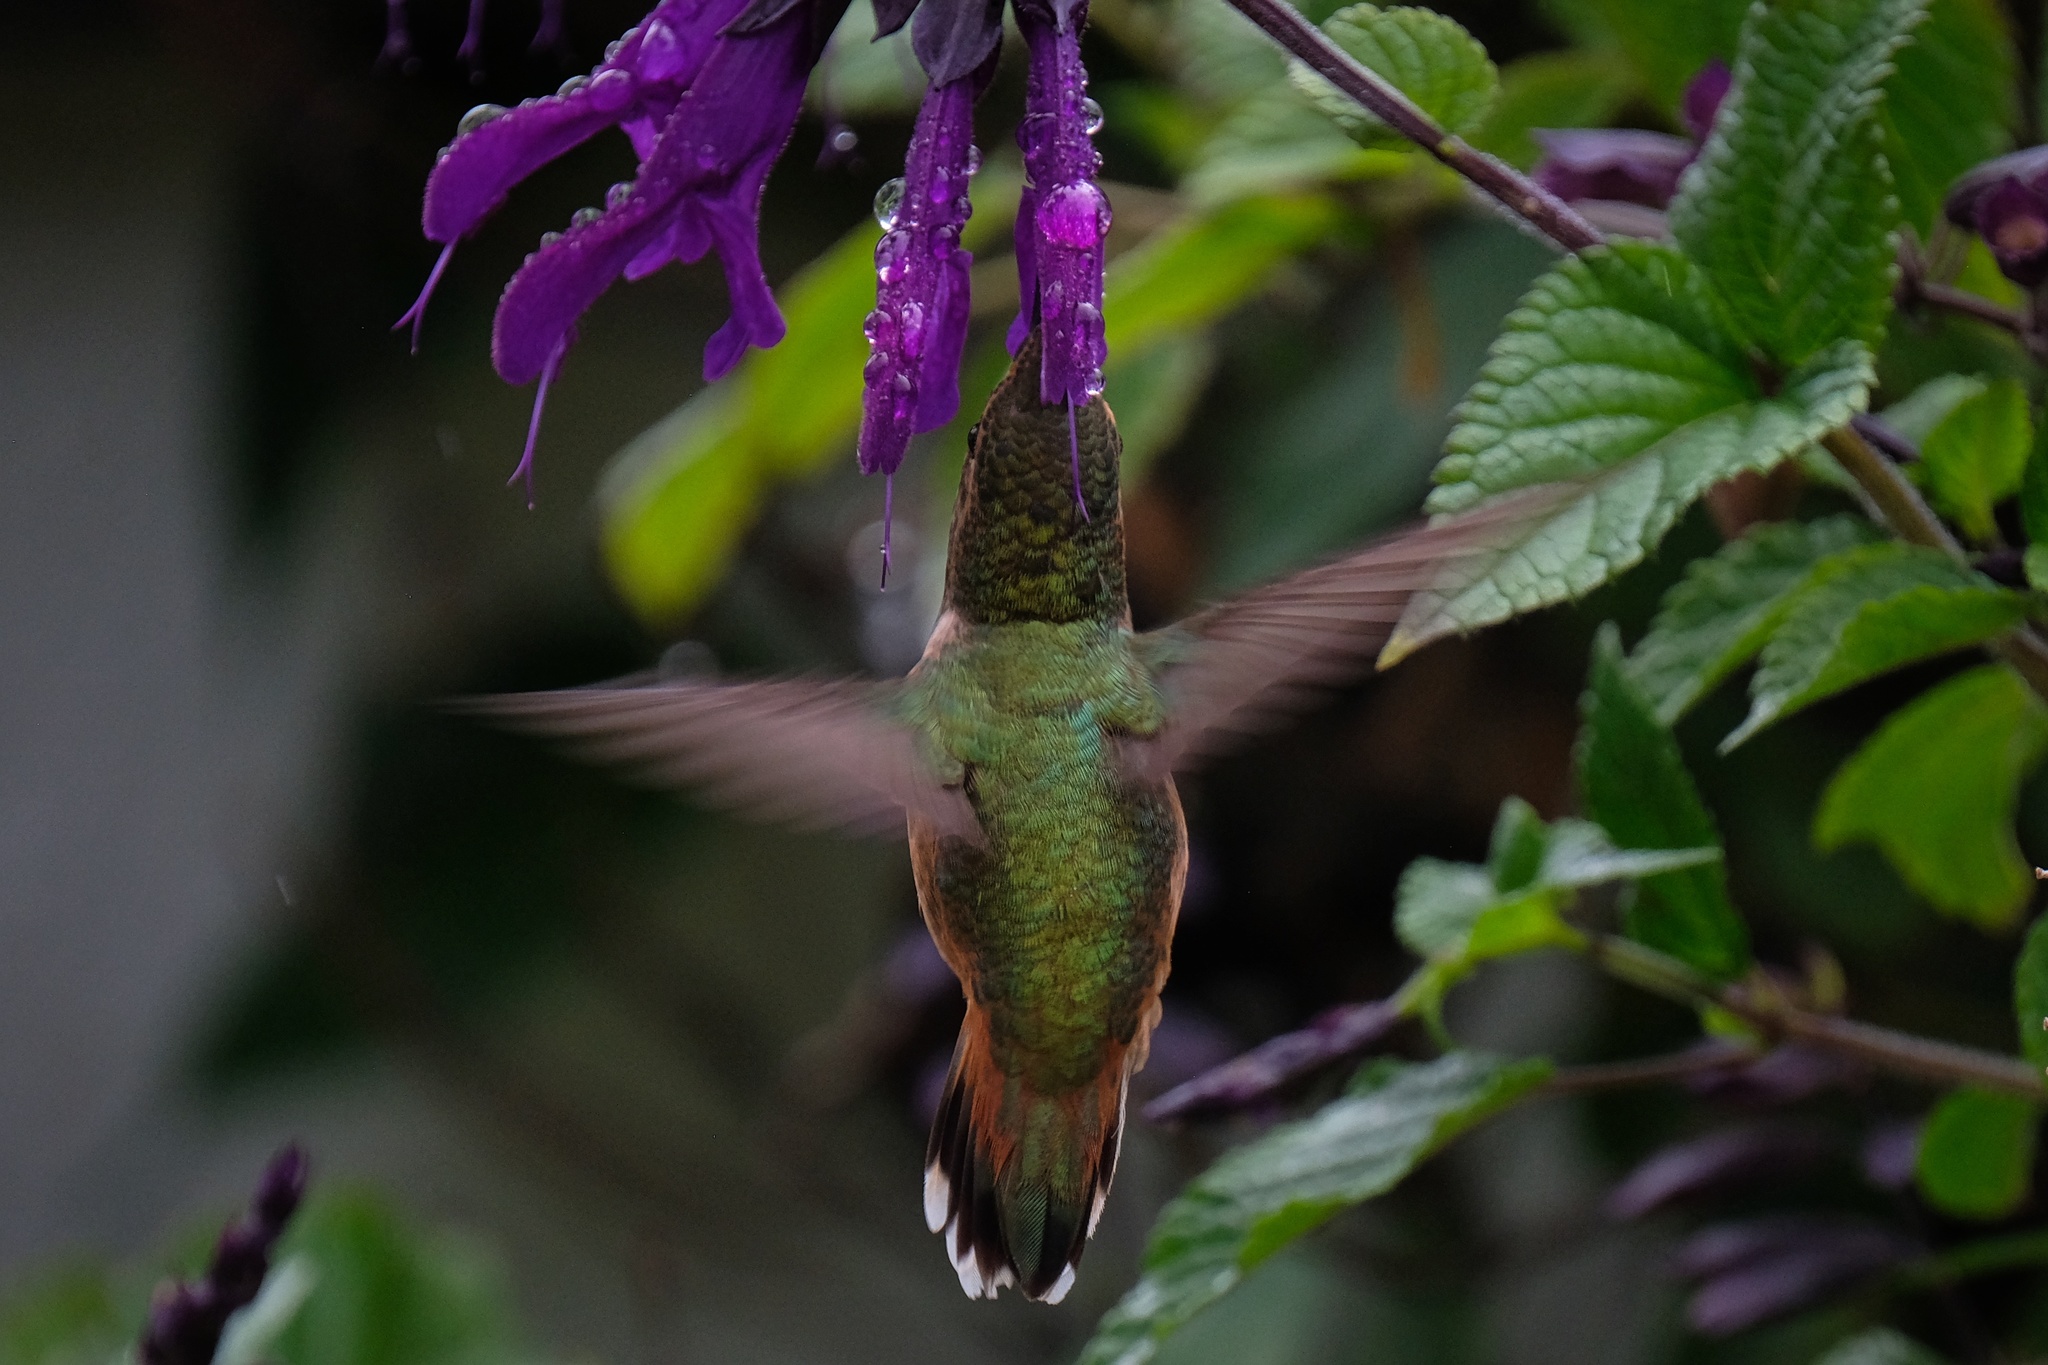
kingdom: Animalia
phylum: Chordata
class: Aves
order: Apodiformes
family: Trochilidae
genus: Selasphorus
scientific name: Selasphorus sasin
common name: Allen's hummingbird
